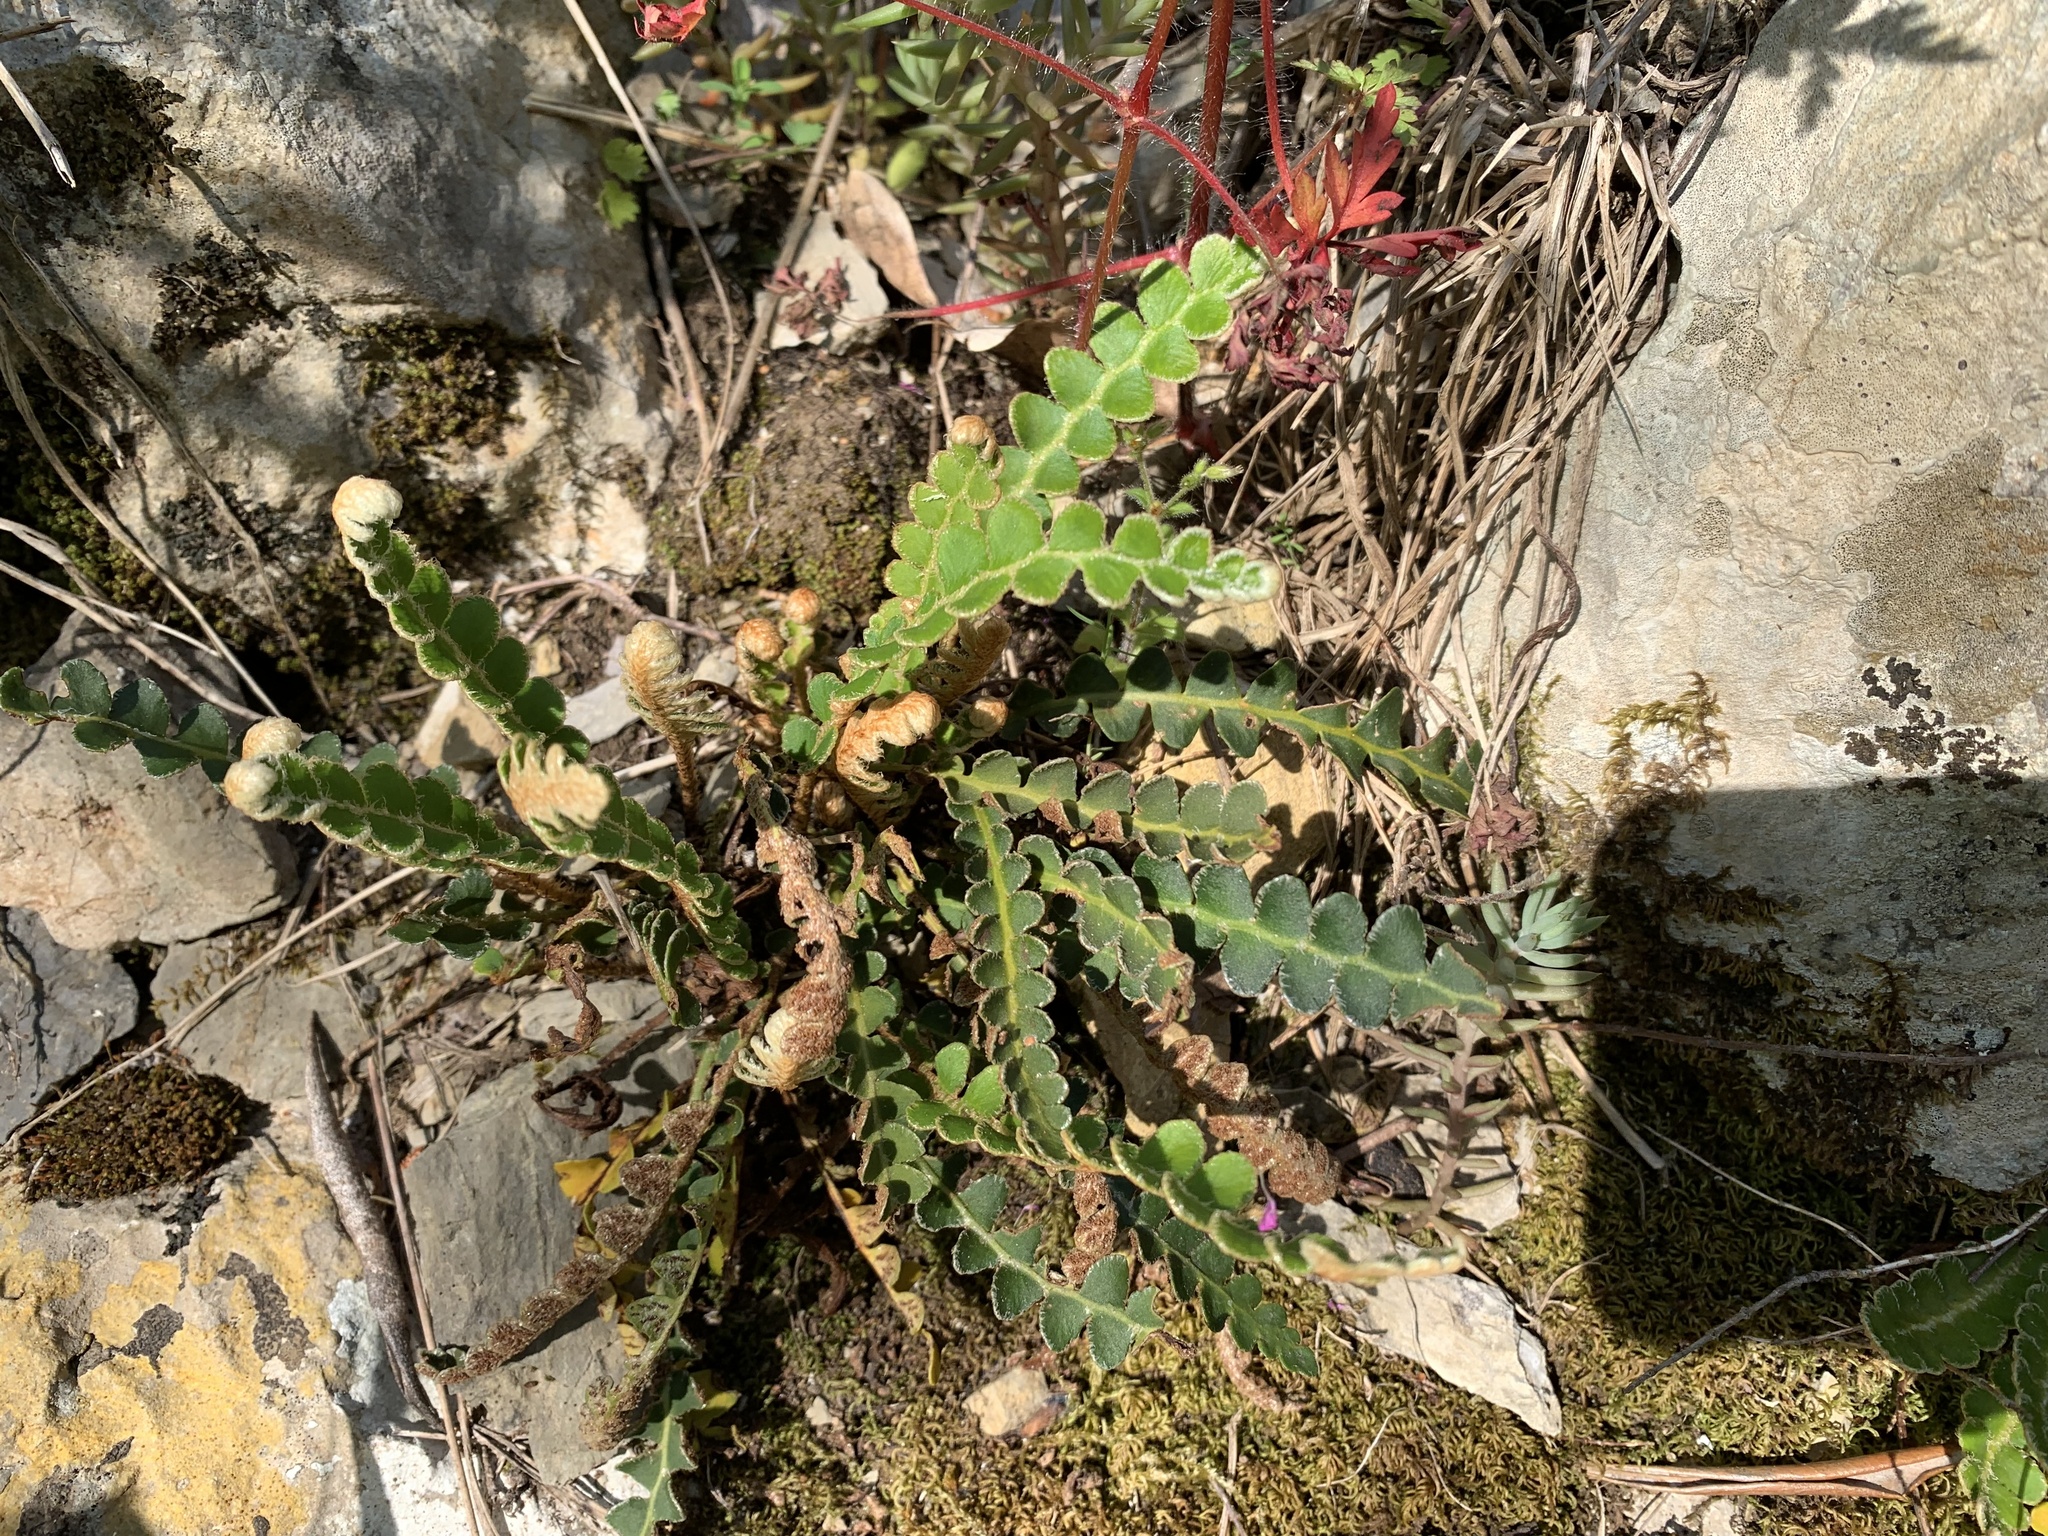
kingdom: Plantae
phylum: Tracheophyta
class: Polypodiopsida
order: Polypodiales
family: Aspleniaceae
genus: Asplenium
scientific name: Asplenium ceterach
